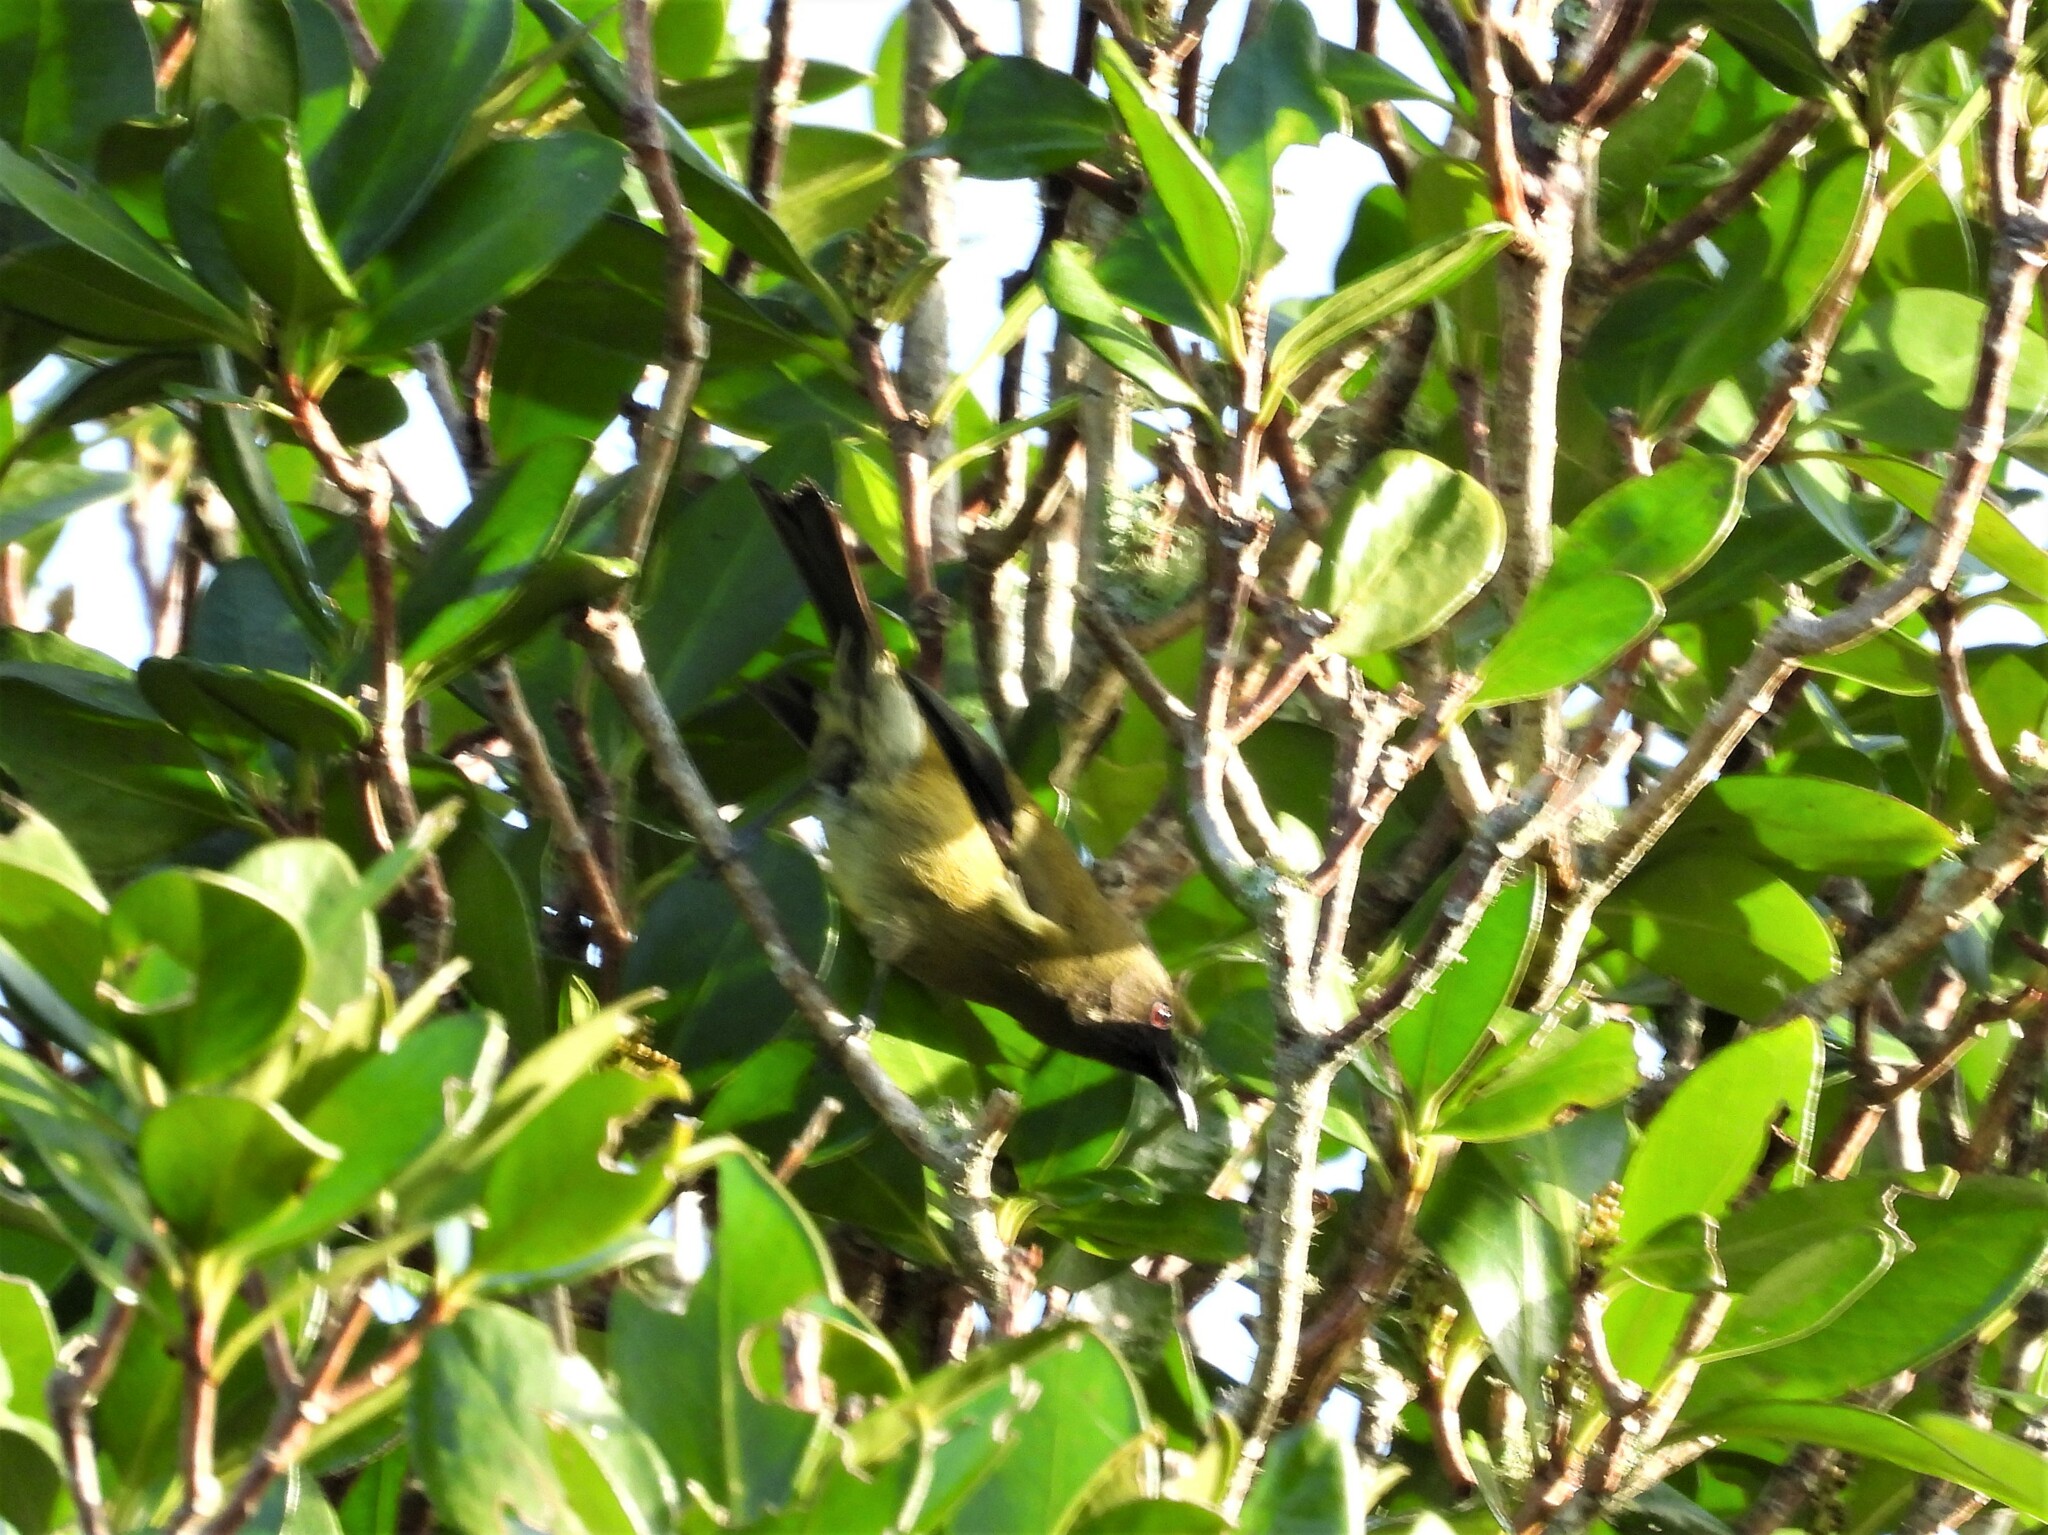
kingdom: Animalia
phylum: Chordata
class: Aves
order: Passeriformes
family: Meliphagidae
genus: Anthornis
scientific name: Anthornis melanura
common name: New zealand bellbird
